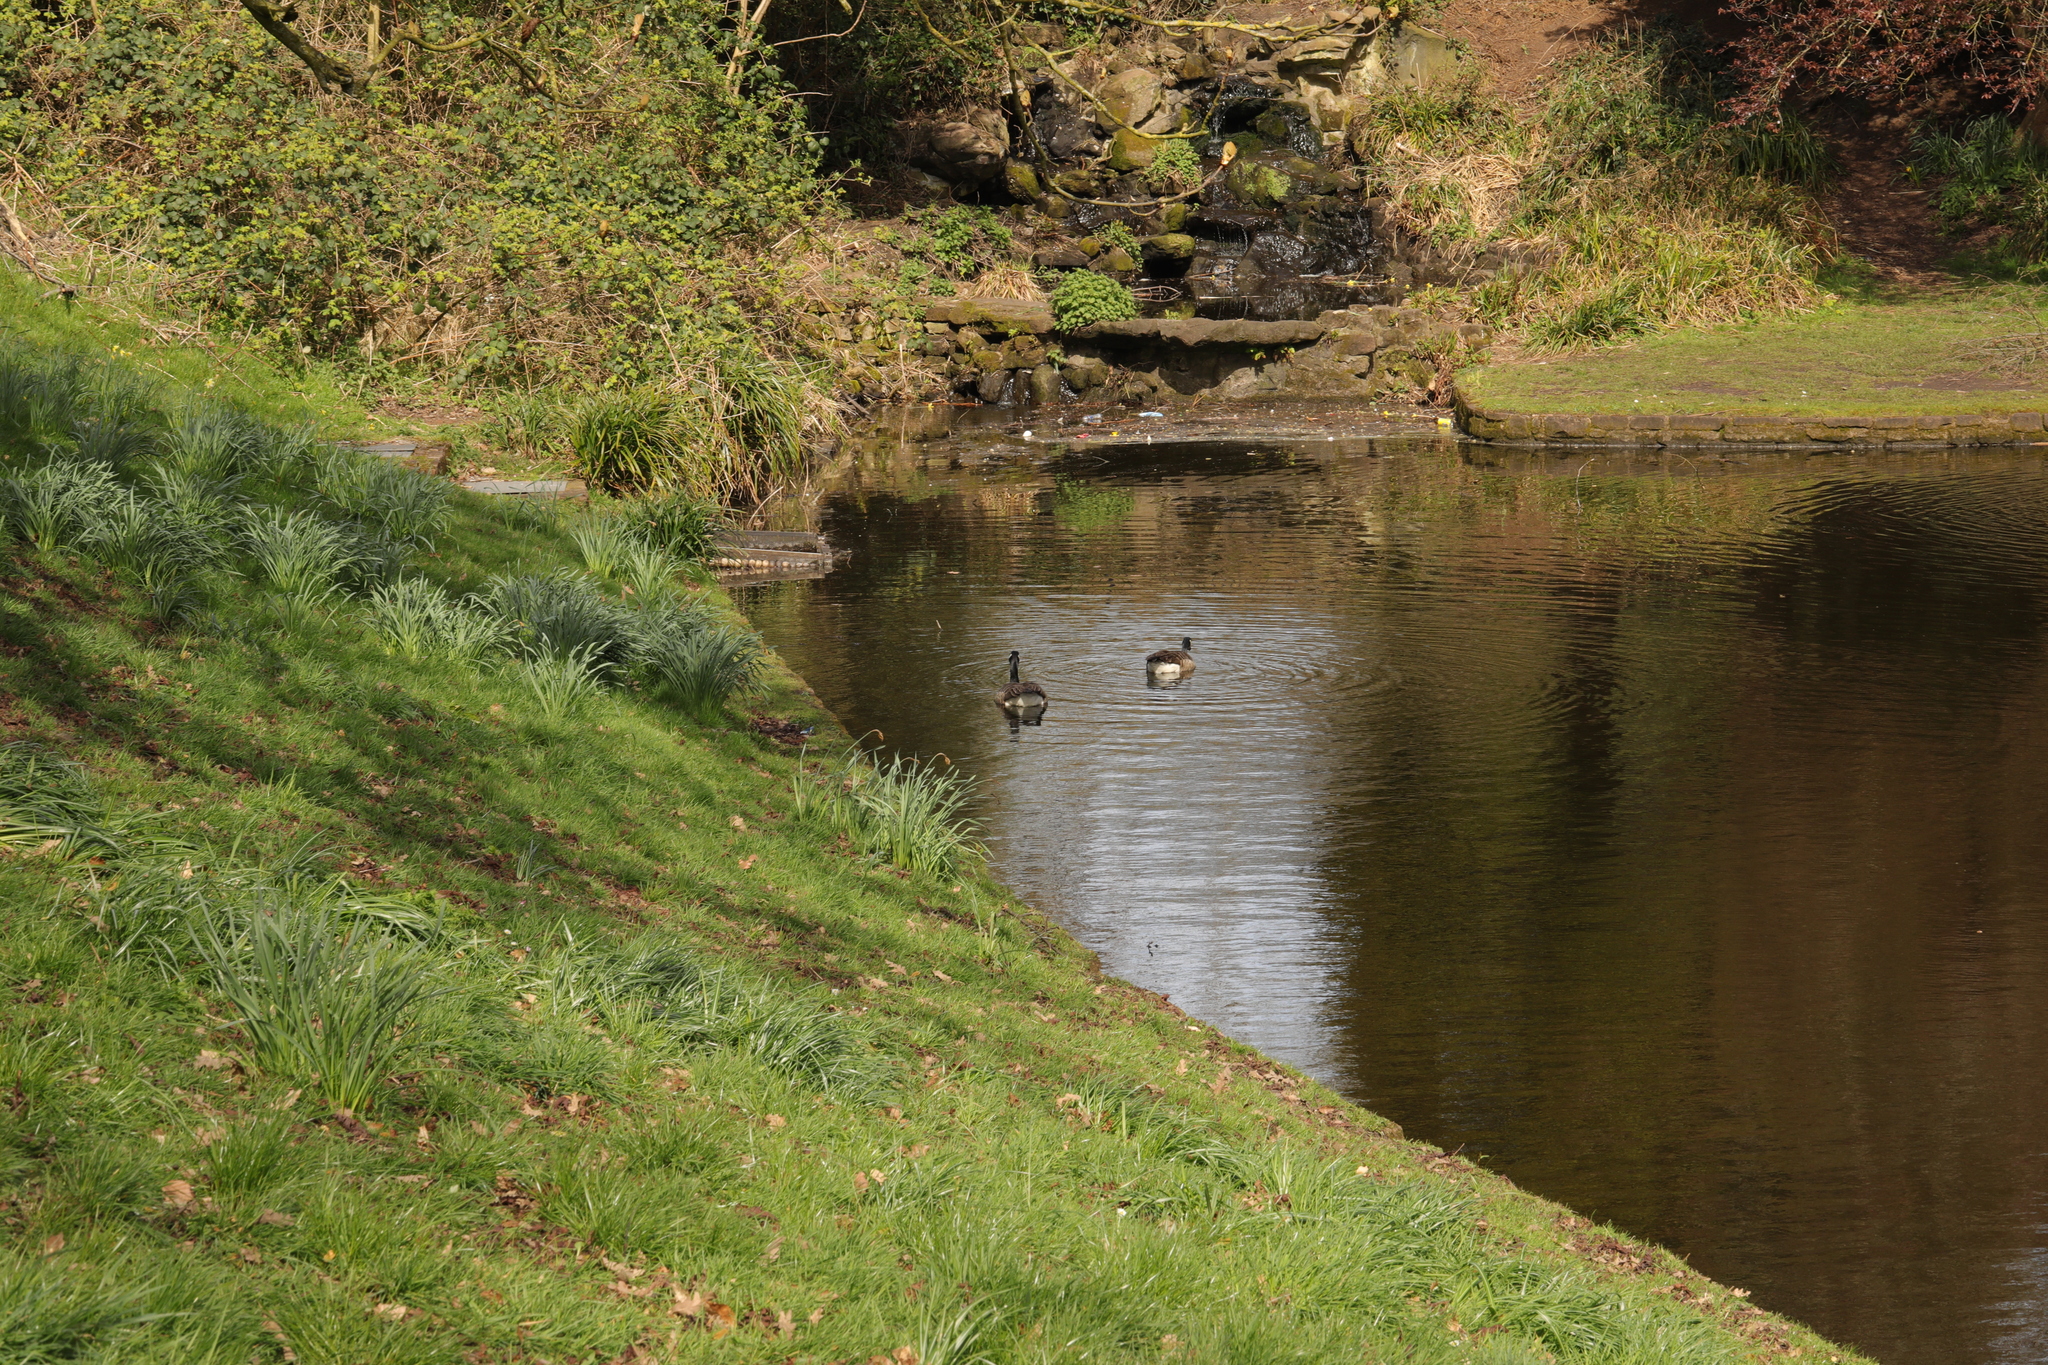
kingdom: Animalia
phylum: Chordata
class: Aves
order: Anseriformes
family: Anatidae
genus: Branta
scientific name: Branta canadensis
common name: Canada goose
